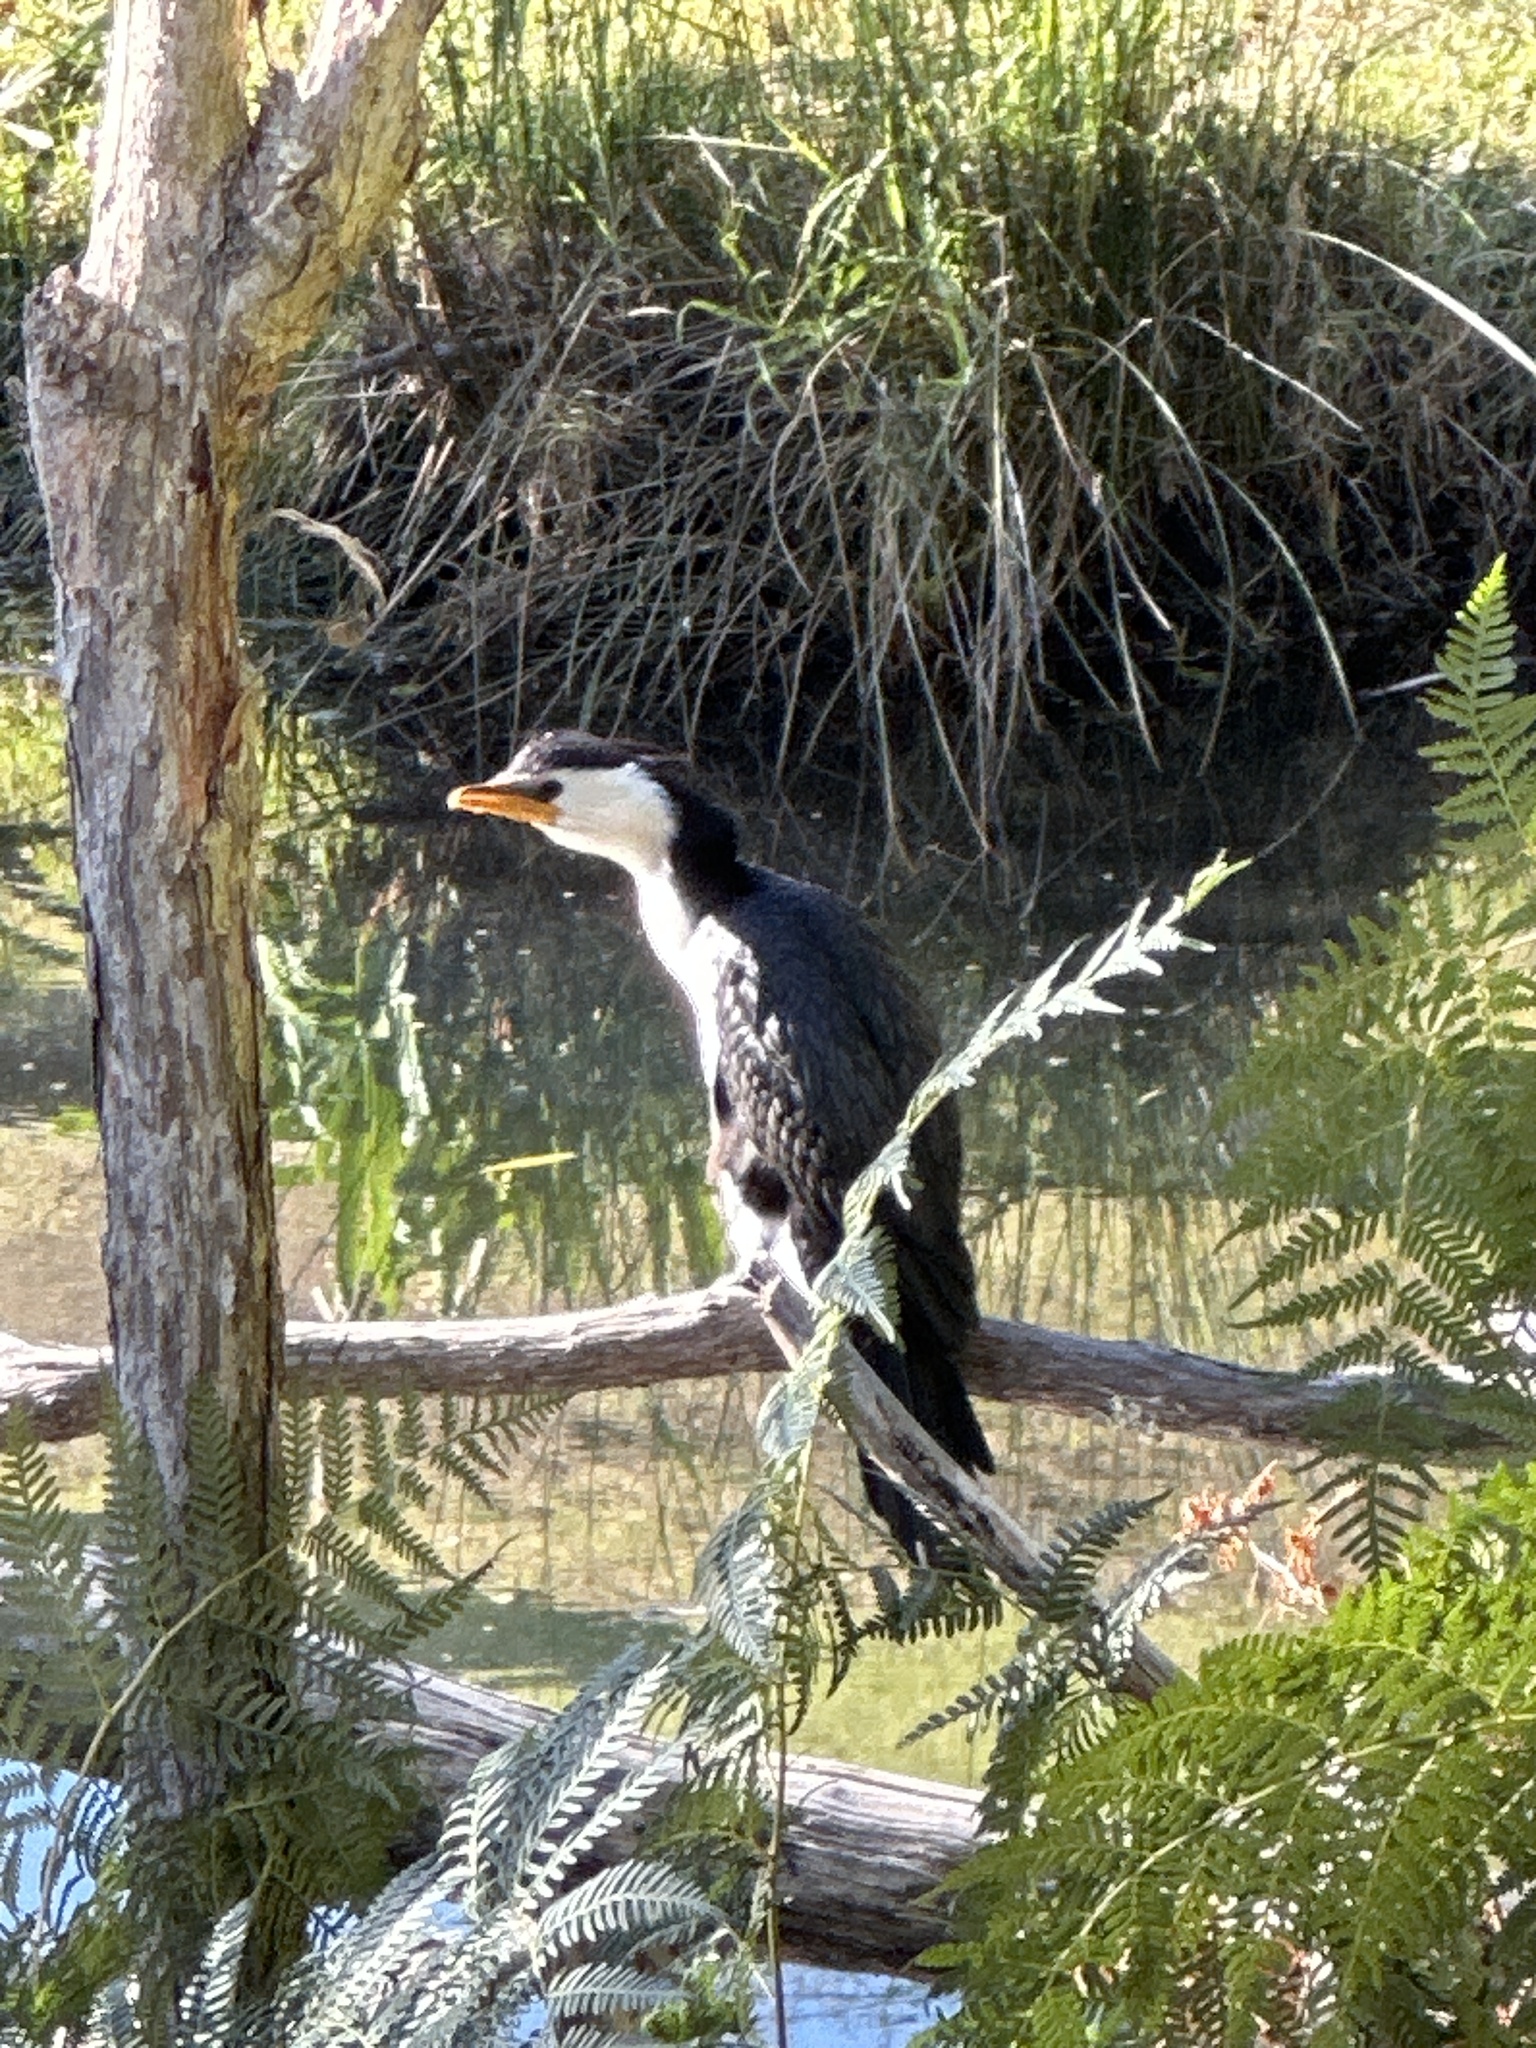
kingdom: Animalia
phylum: Chordata
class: Aves
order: Suliformes
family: Phalacrocoracidae
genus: Microcarbo
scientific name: Microcarbo melanoleucos
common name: Little pied cormorant
